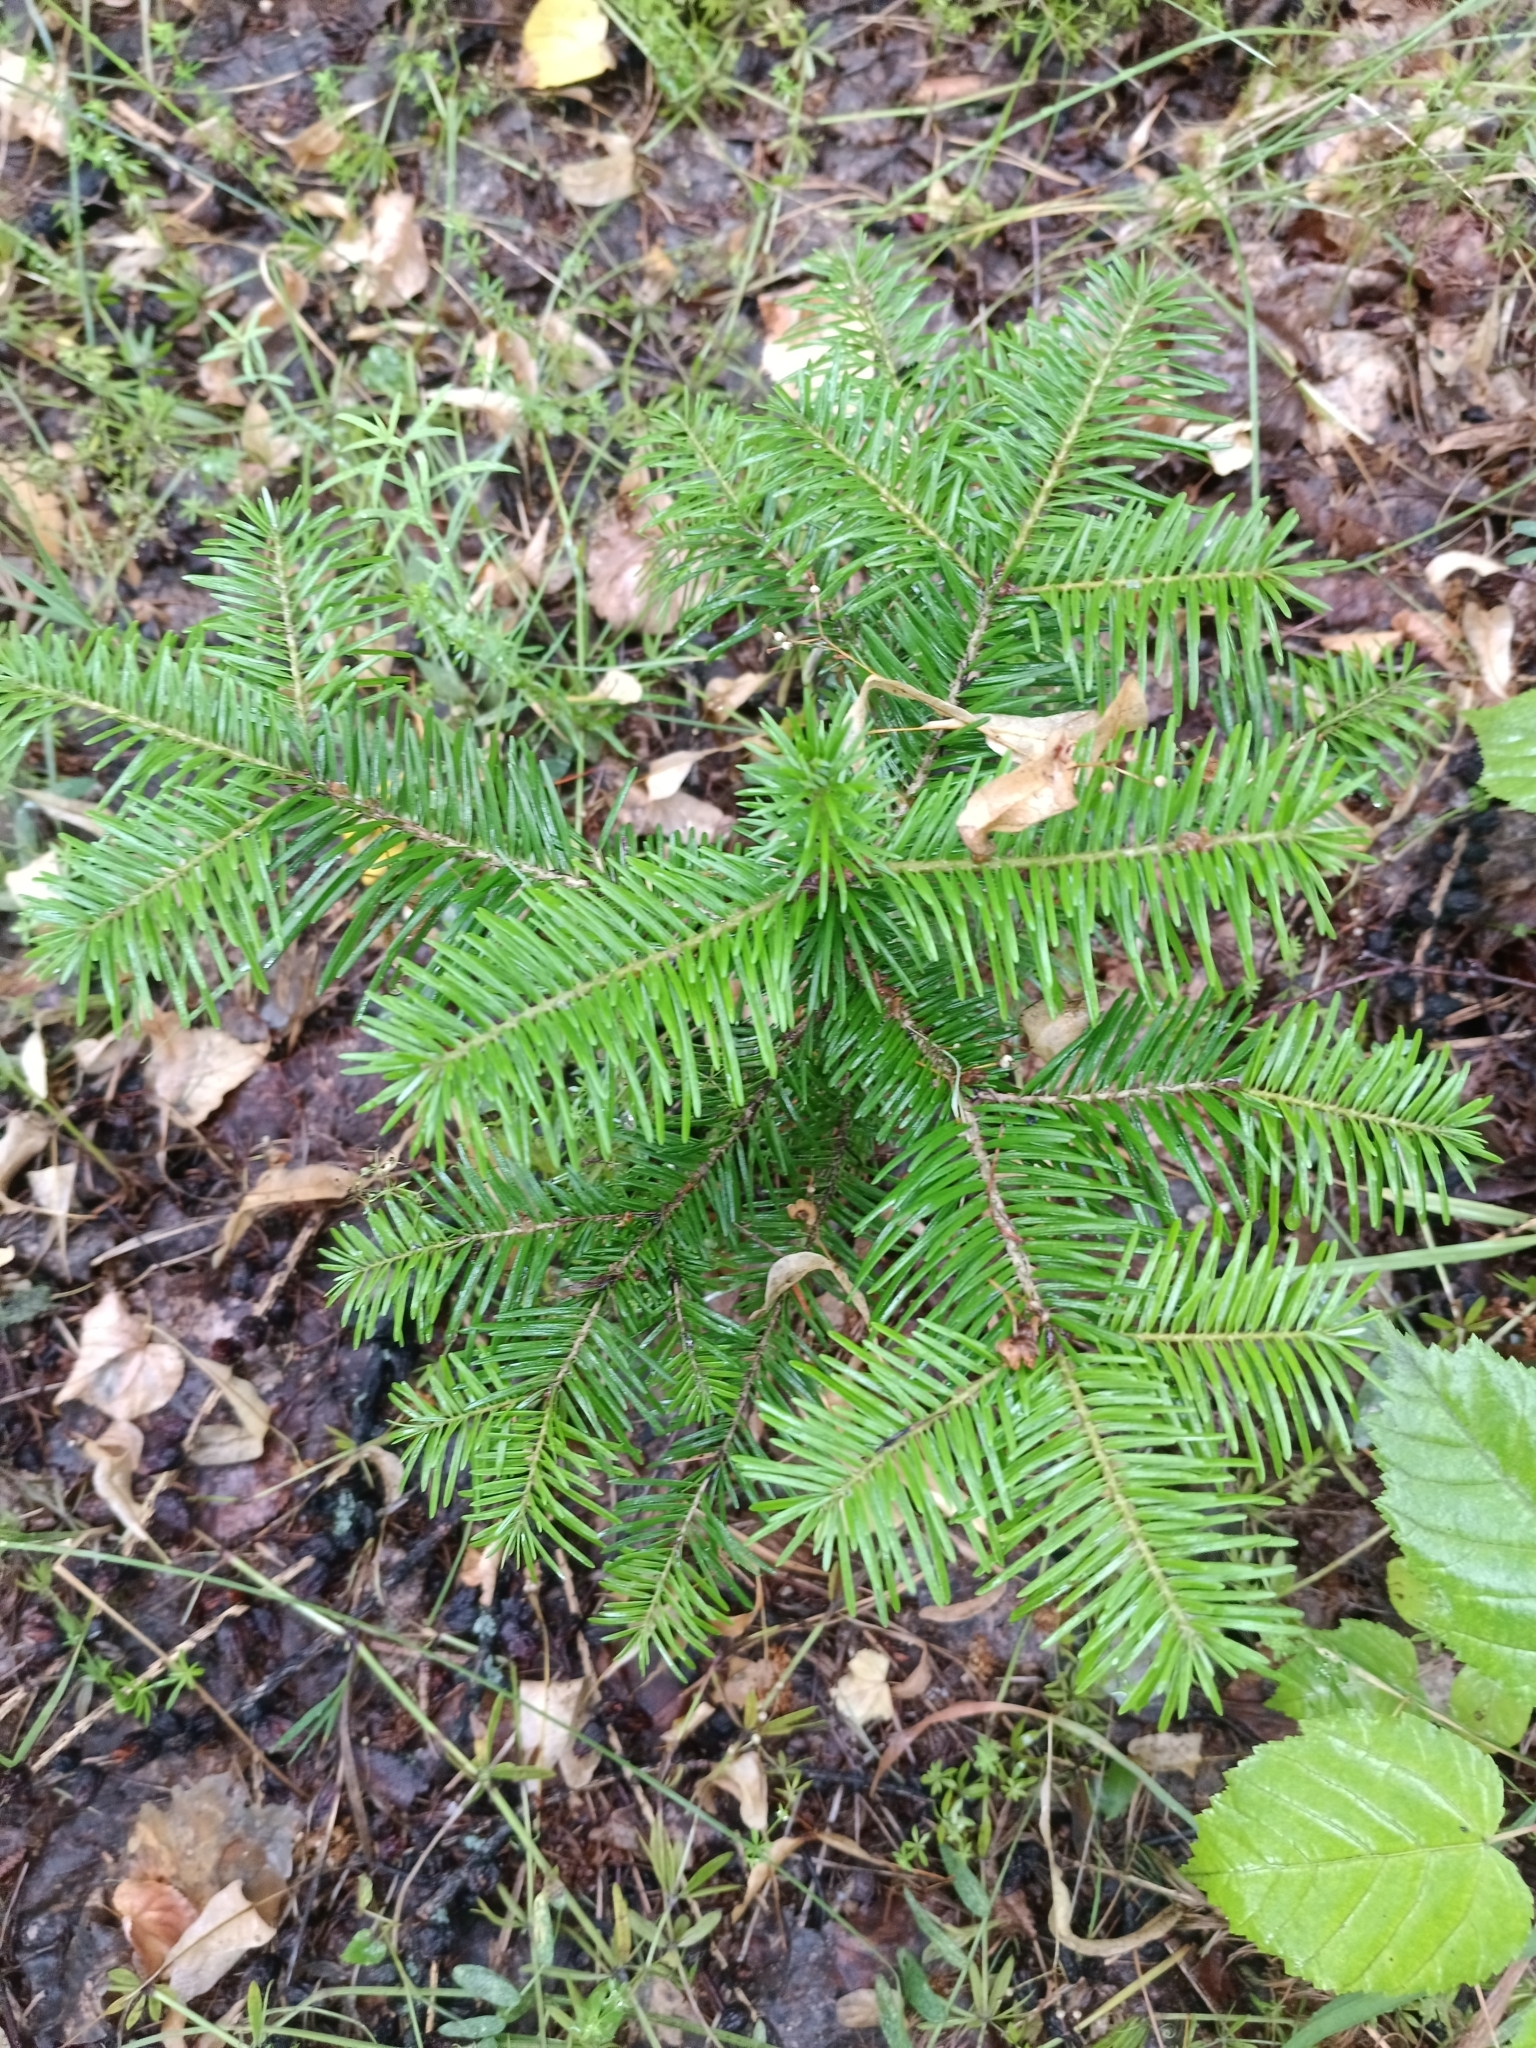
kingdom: Plantae
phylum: Tracheophyta
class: Pinopsida
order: Pinales
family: Pinaceae
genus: Abies
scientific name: Abies sibirica
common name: Siberian fir
